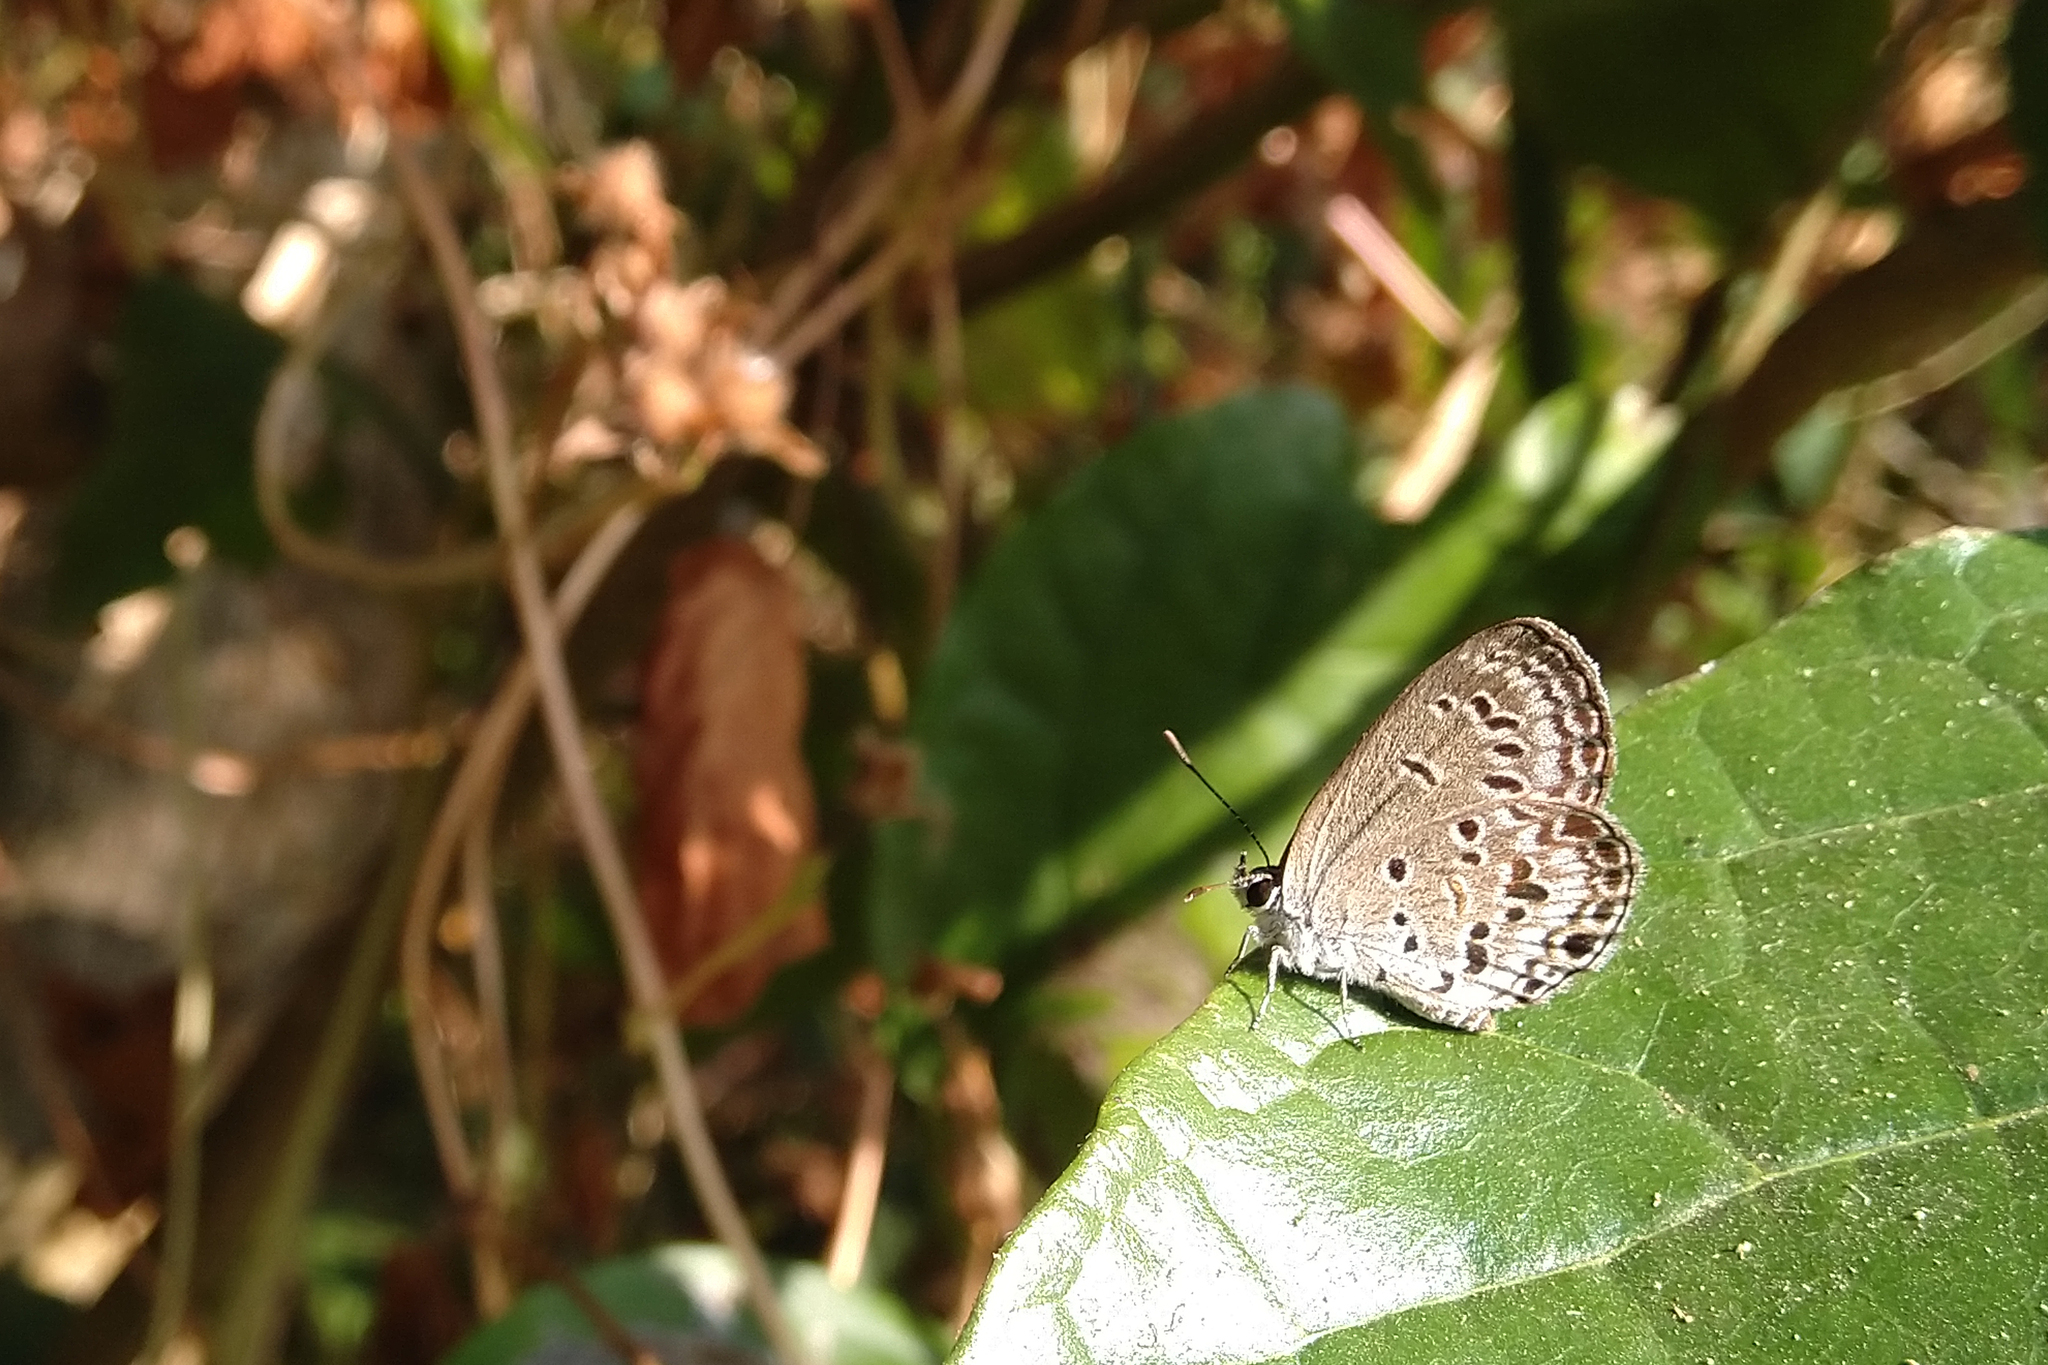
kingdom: Animalia
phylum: Arthropoda
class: Insecta
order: Lepidoptera
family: Lycaenidae
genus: Chilades
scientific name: Chilades laius
